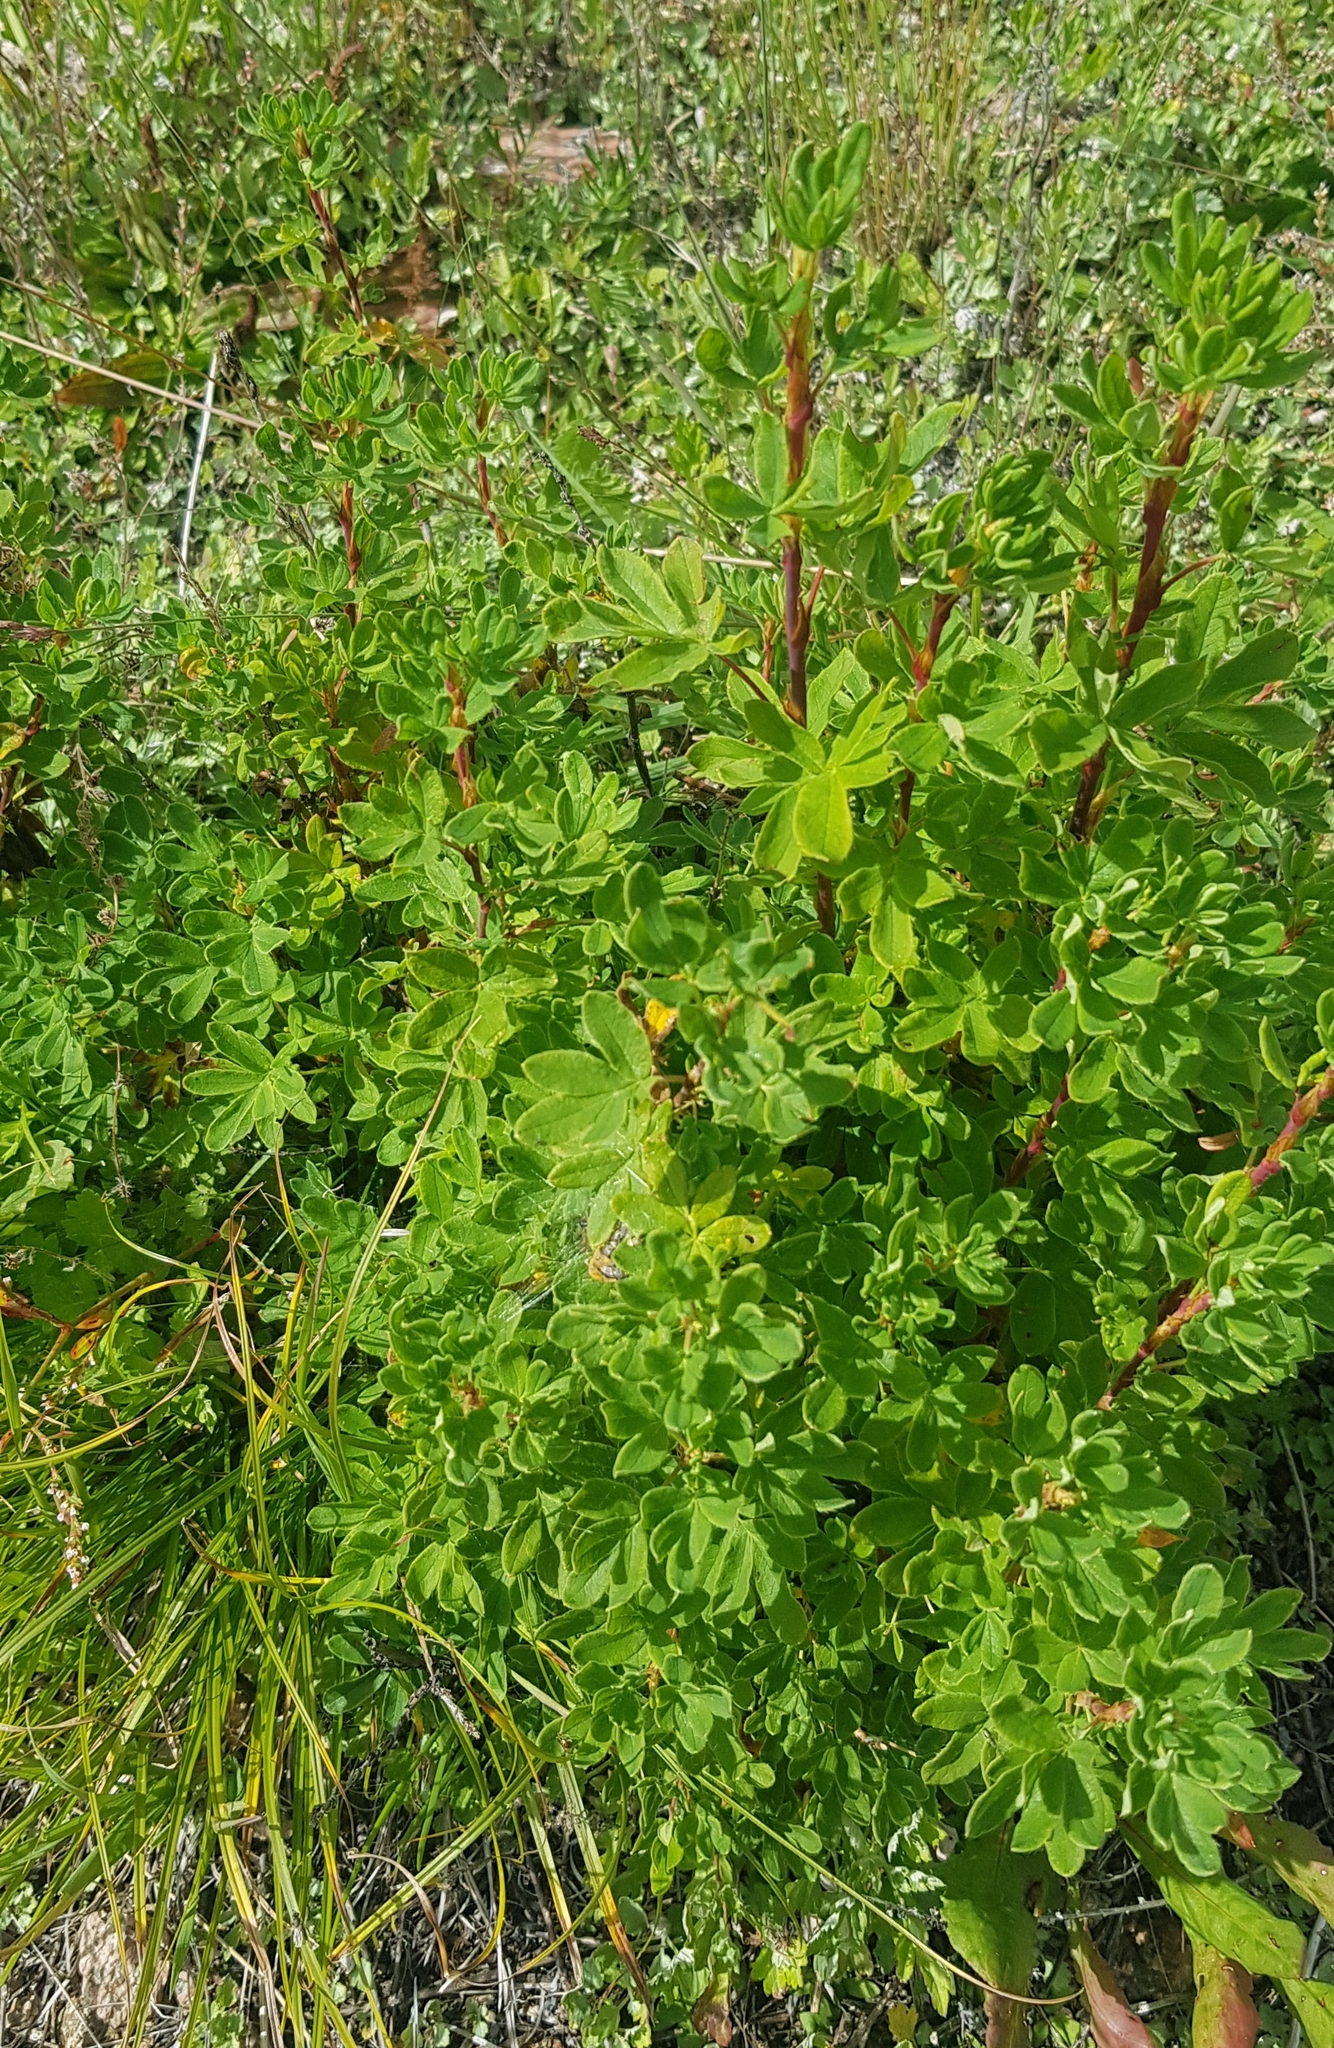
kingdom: Plantae
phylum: Tracheophyta
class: Magnoliopsida
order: Rosales
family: Rosaceae
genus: Dasiphora
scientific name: Dasiphora fruticosa
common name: Shrubby cinquefoil
